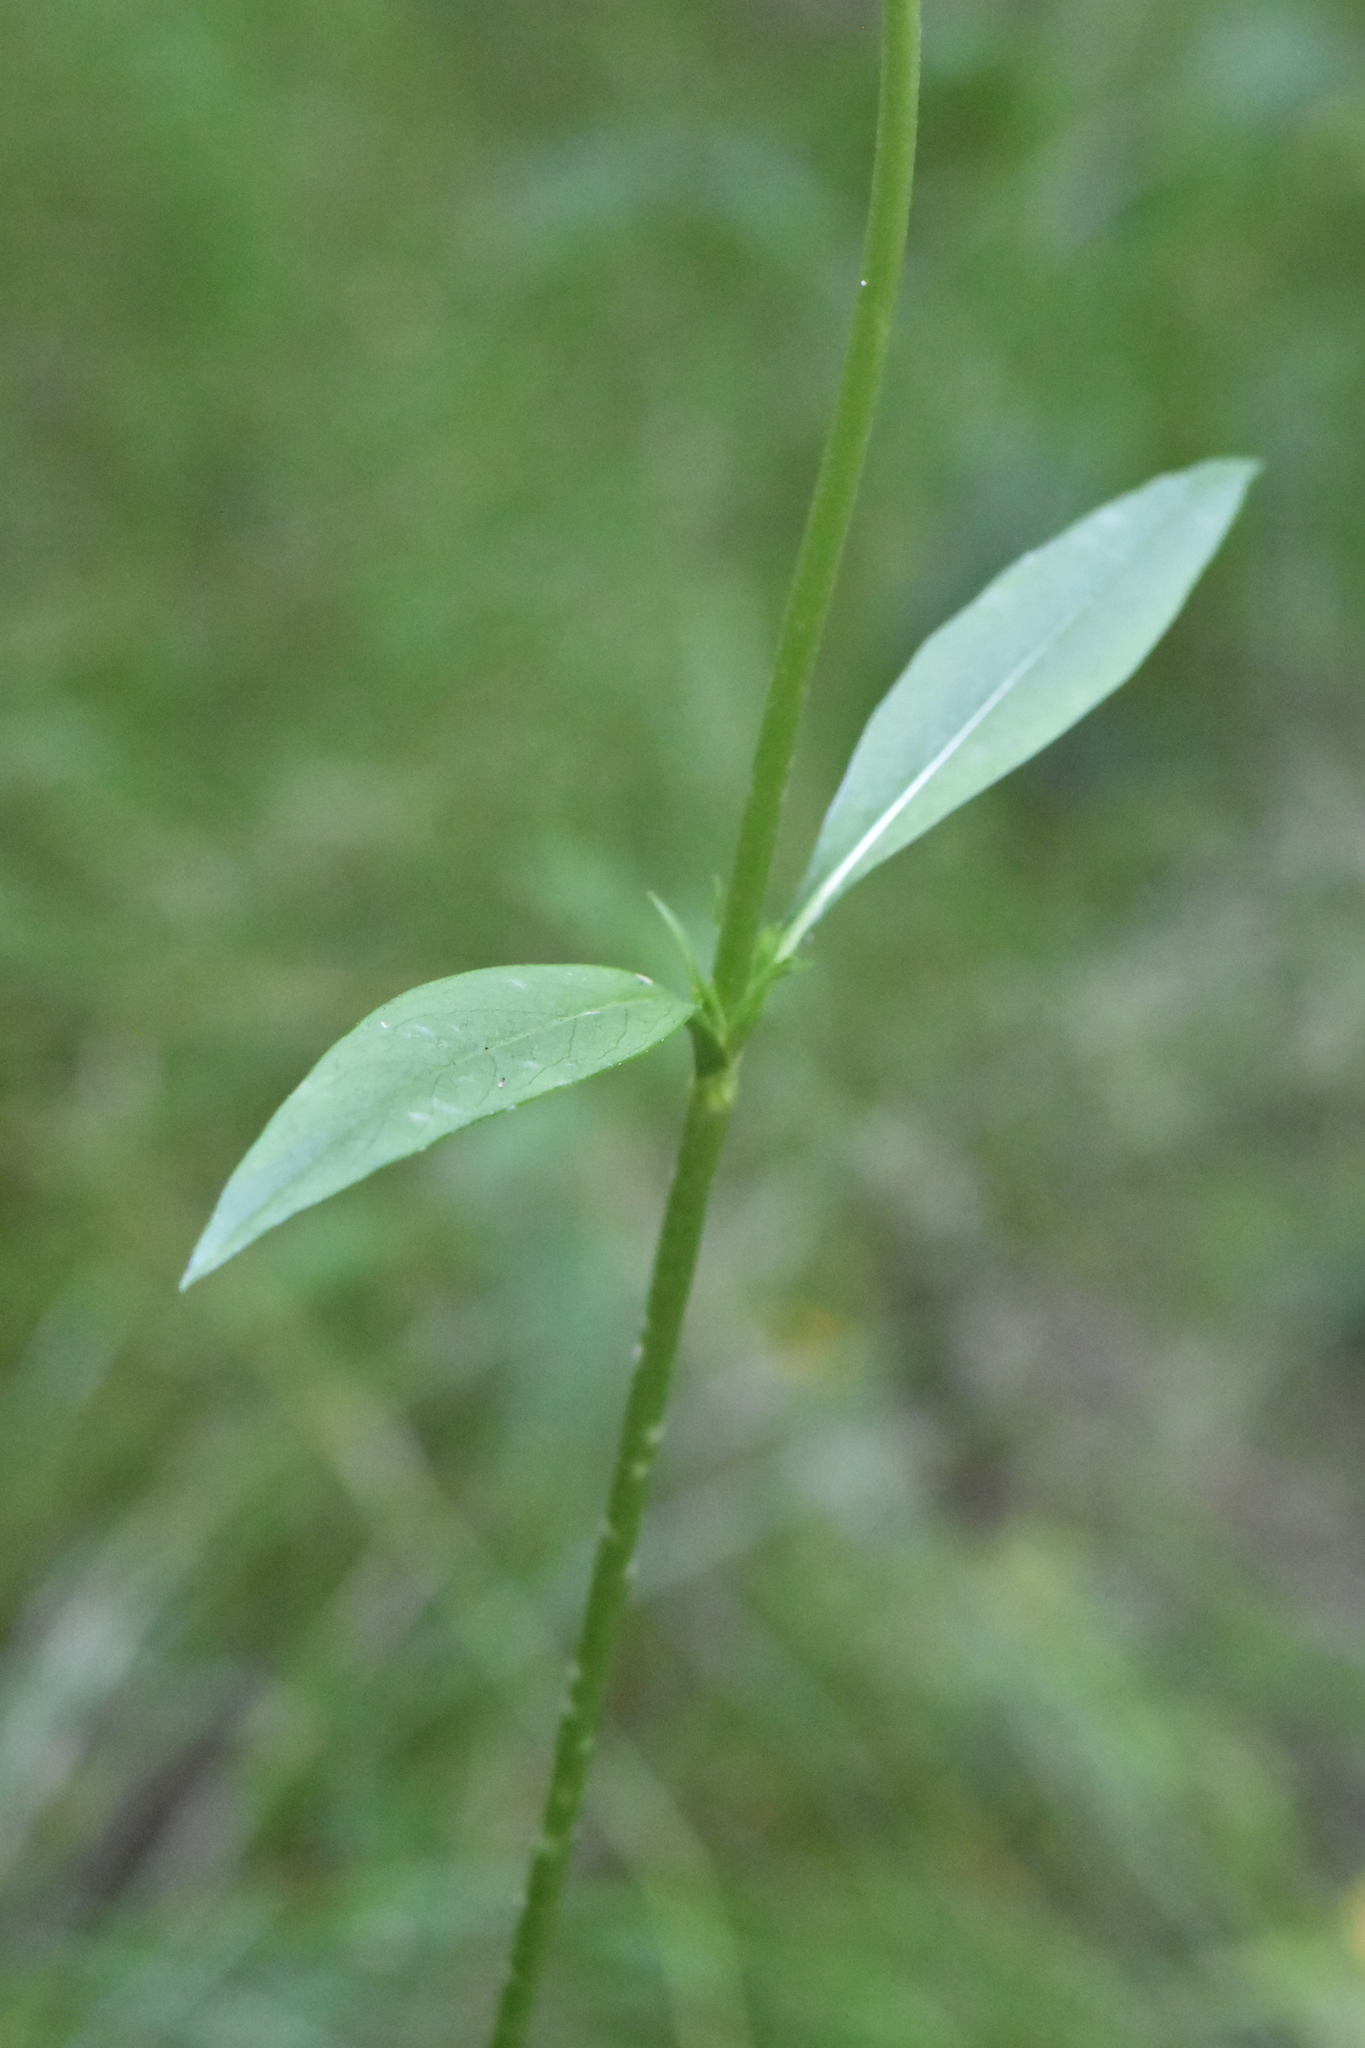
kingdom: Plantae
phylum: Tracheophyta
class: Magnoliopsida
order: Dipsacales
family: Caprifoliaceae
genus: Succisa
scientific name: Succisa pratensis
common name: Devil's-bit
